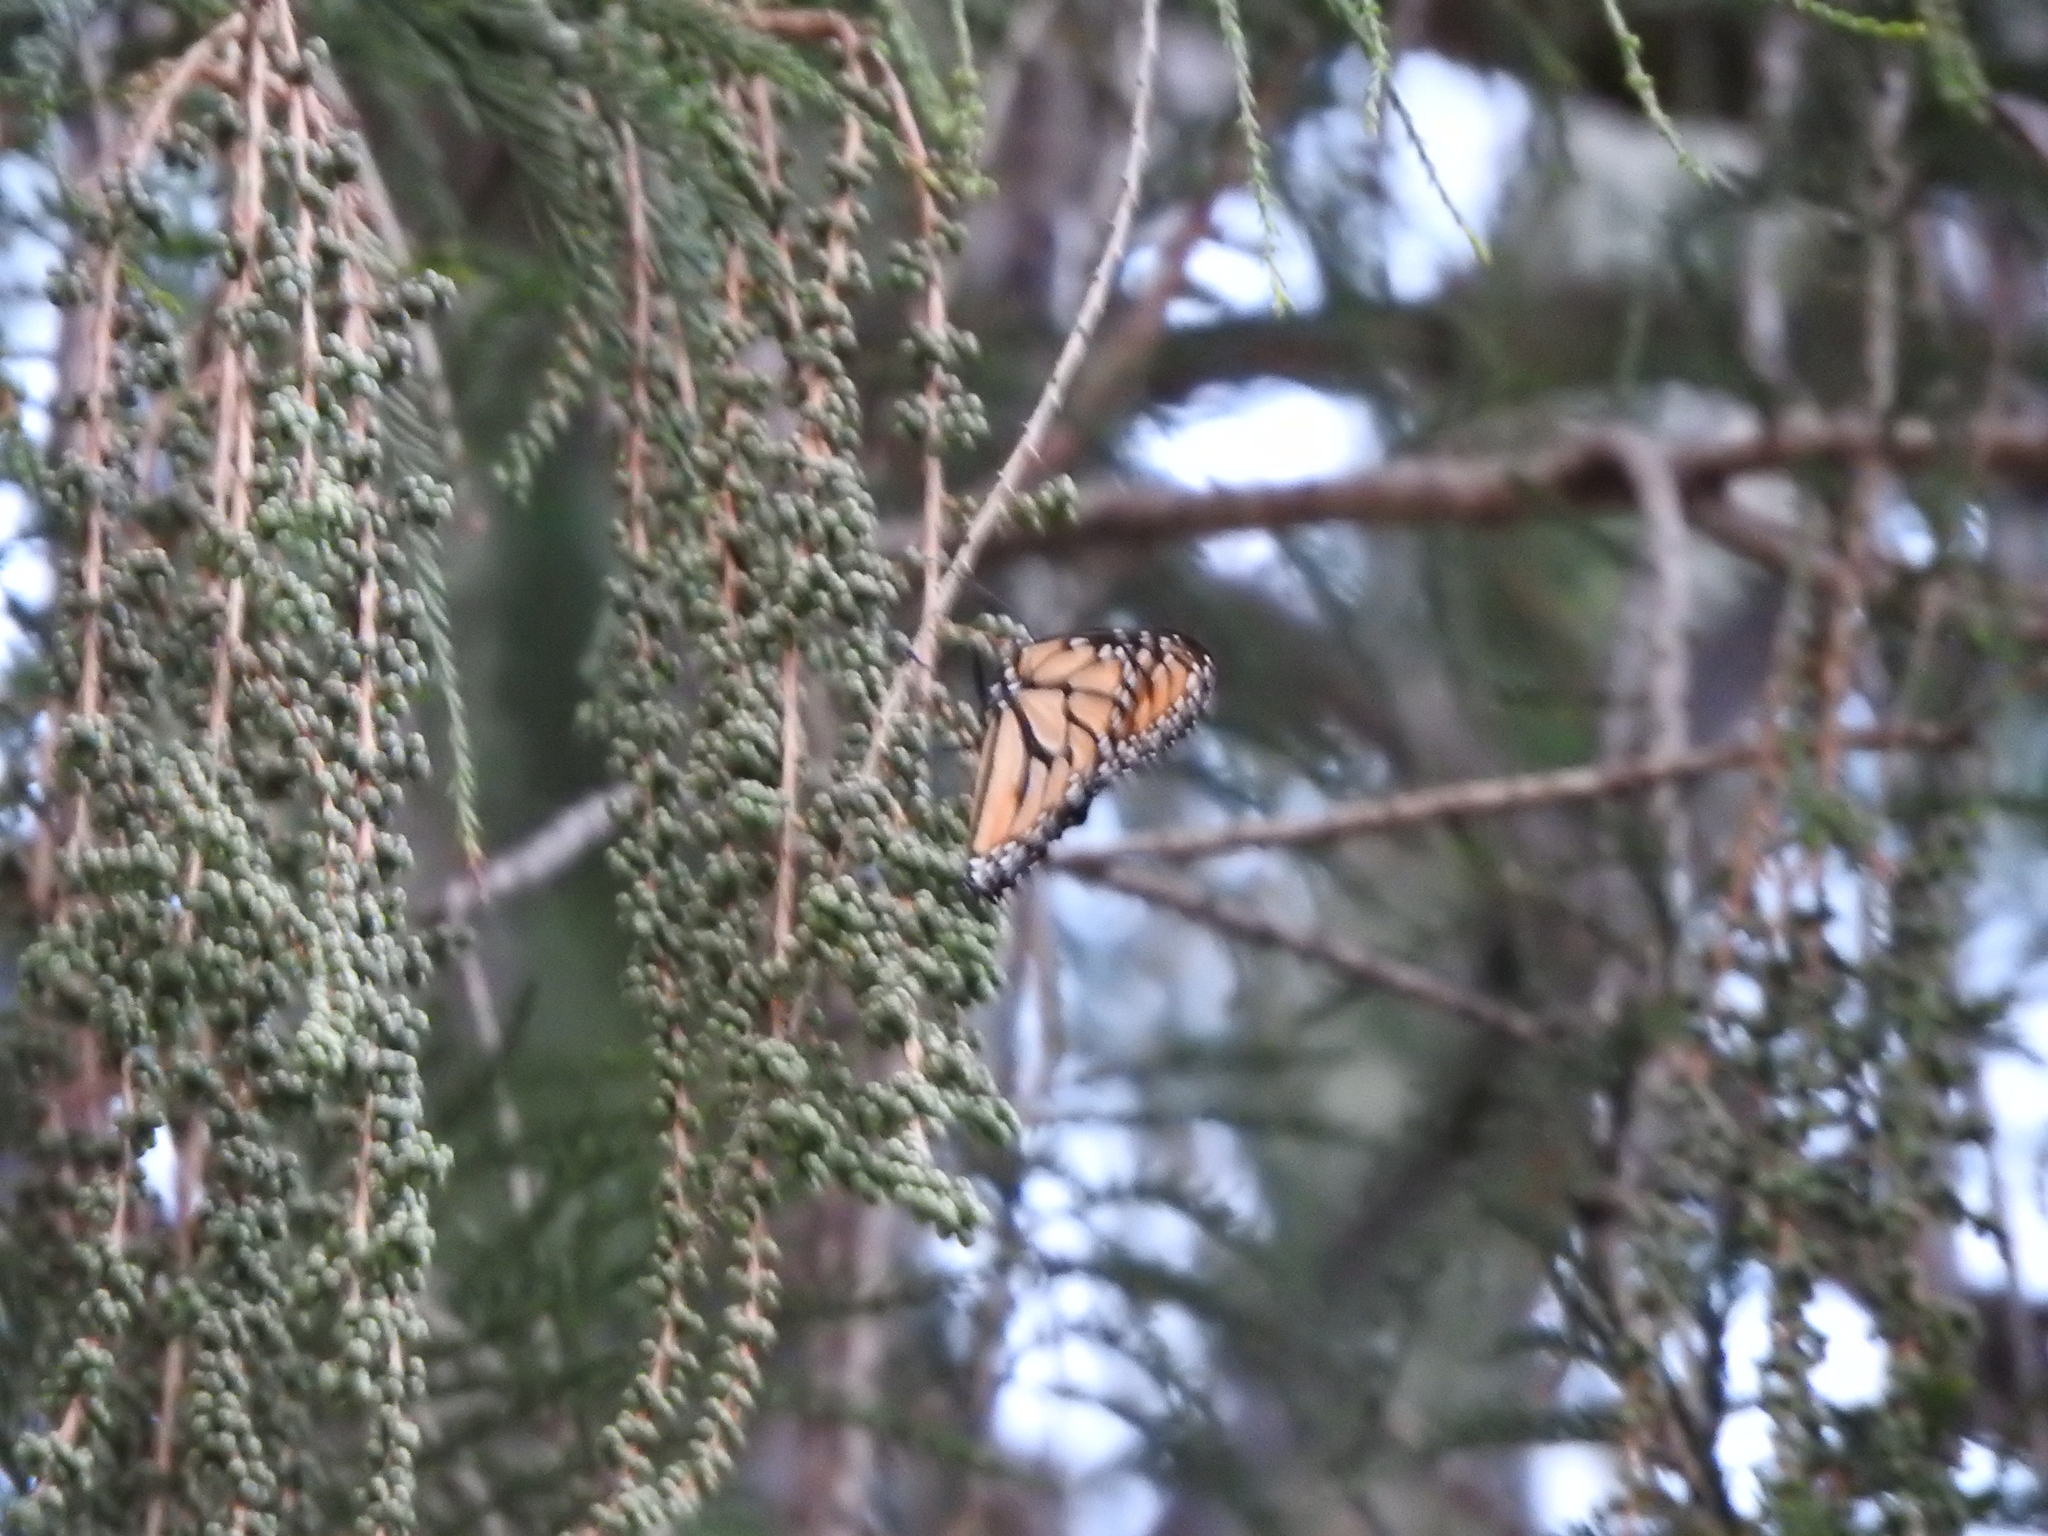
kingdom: Animalia
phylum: Arthropoda
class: Insecta
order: Lepidoptera
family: Nymphalidae
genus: Danaus
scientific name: Danaus plexippus
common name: Monarch
